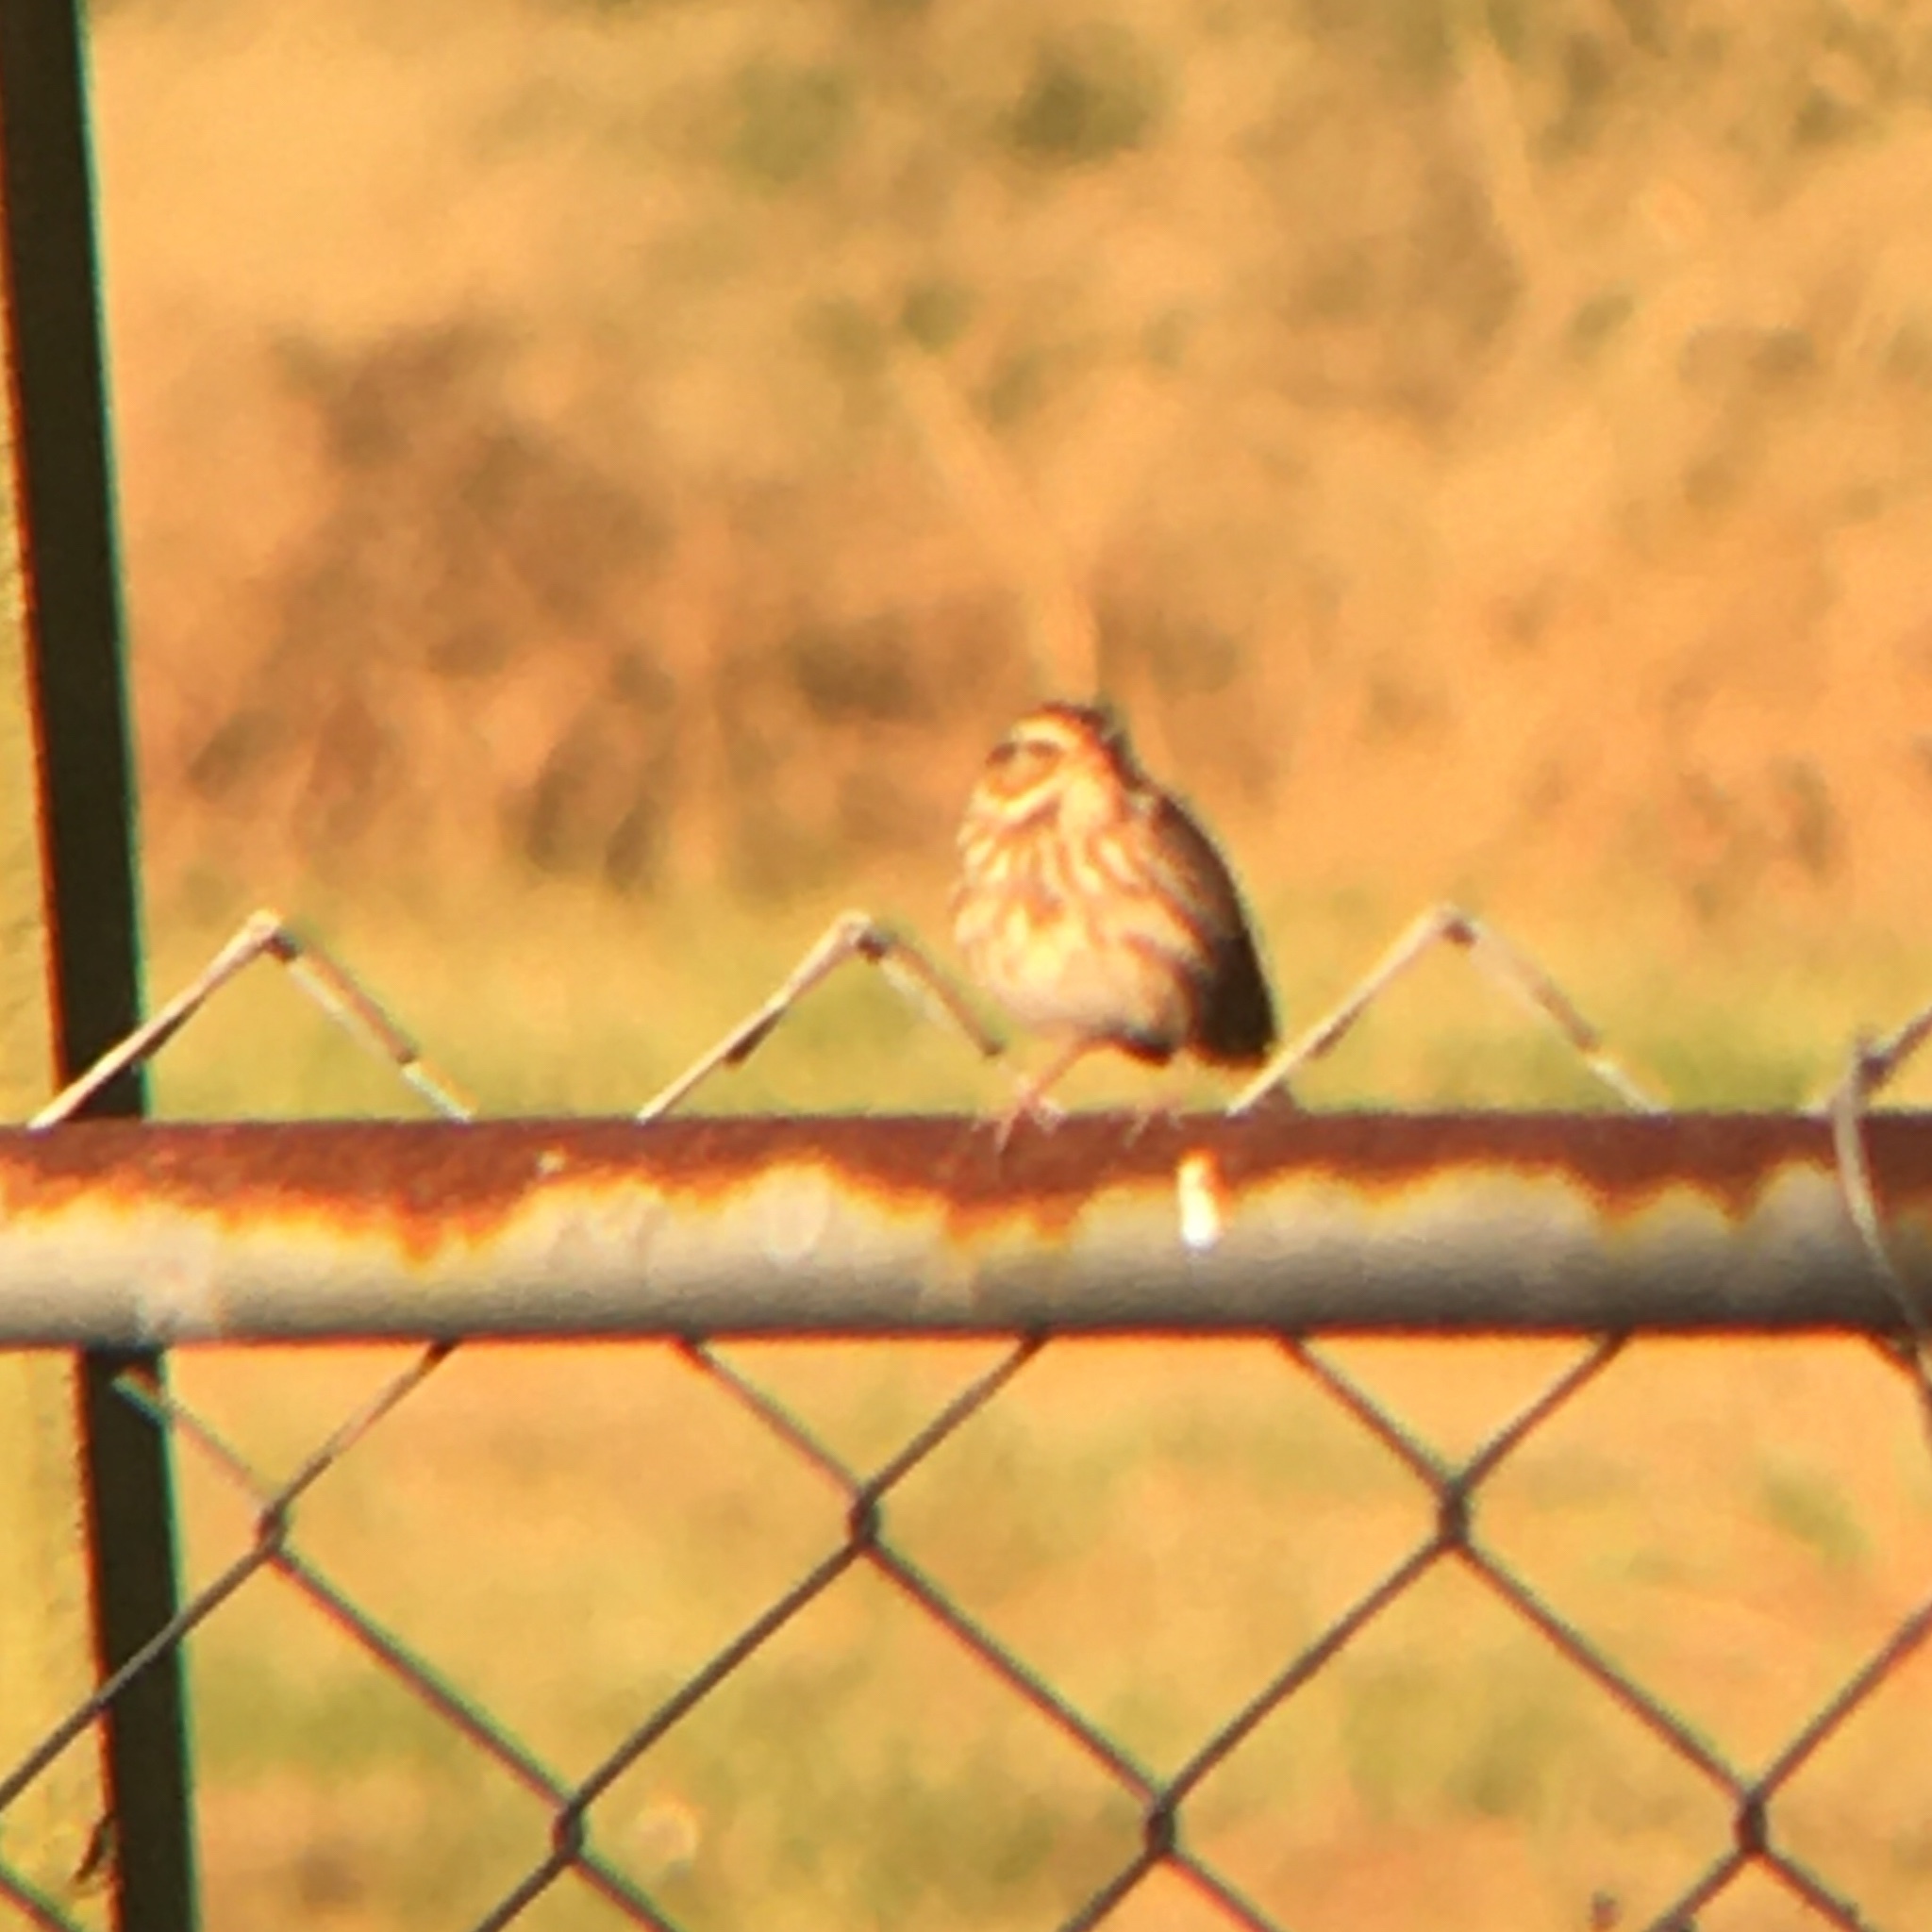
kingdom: Animalia
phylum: Chordata
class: Aves
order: Passeriformes
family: Passerellidae
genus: Passerculus
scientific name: Passerculus sandwichensis
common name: Savannah sparrow
